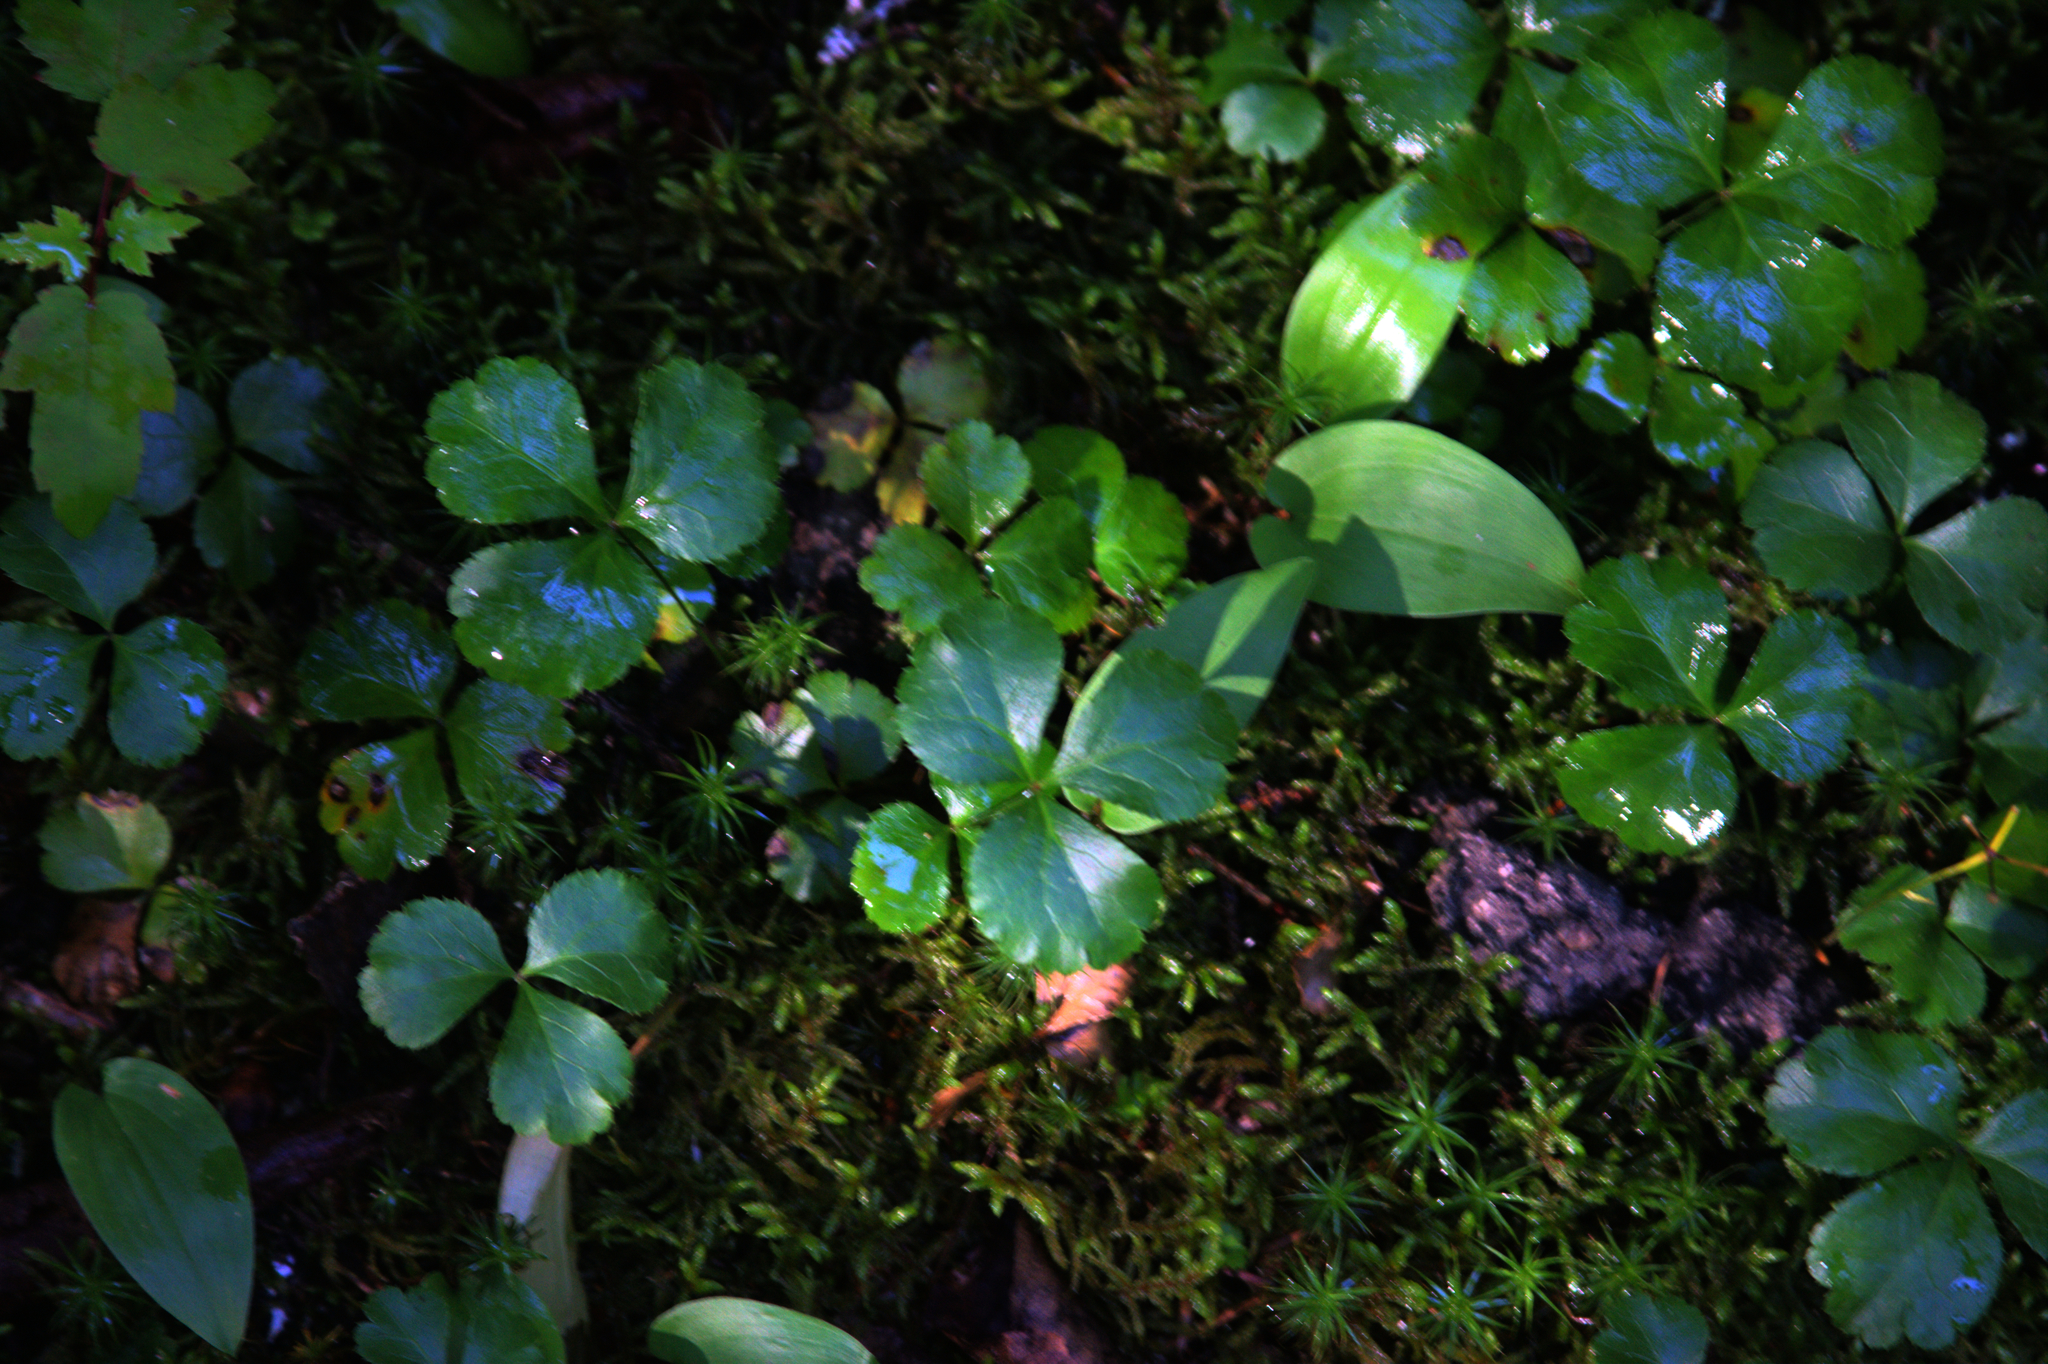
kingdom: Plantae
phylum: Tracheophyta
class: Liliopsida
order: Asparagales
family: Asparagaceae
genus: Maianthemum
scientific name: Maianthemum canadense
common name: False lily-of-the-valley
